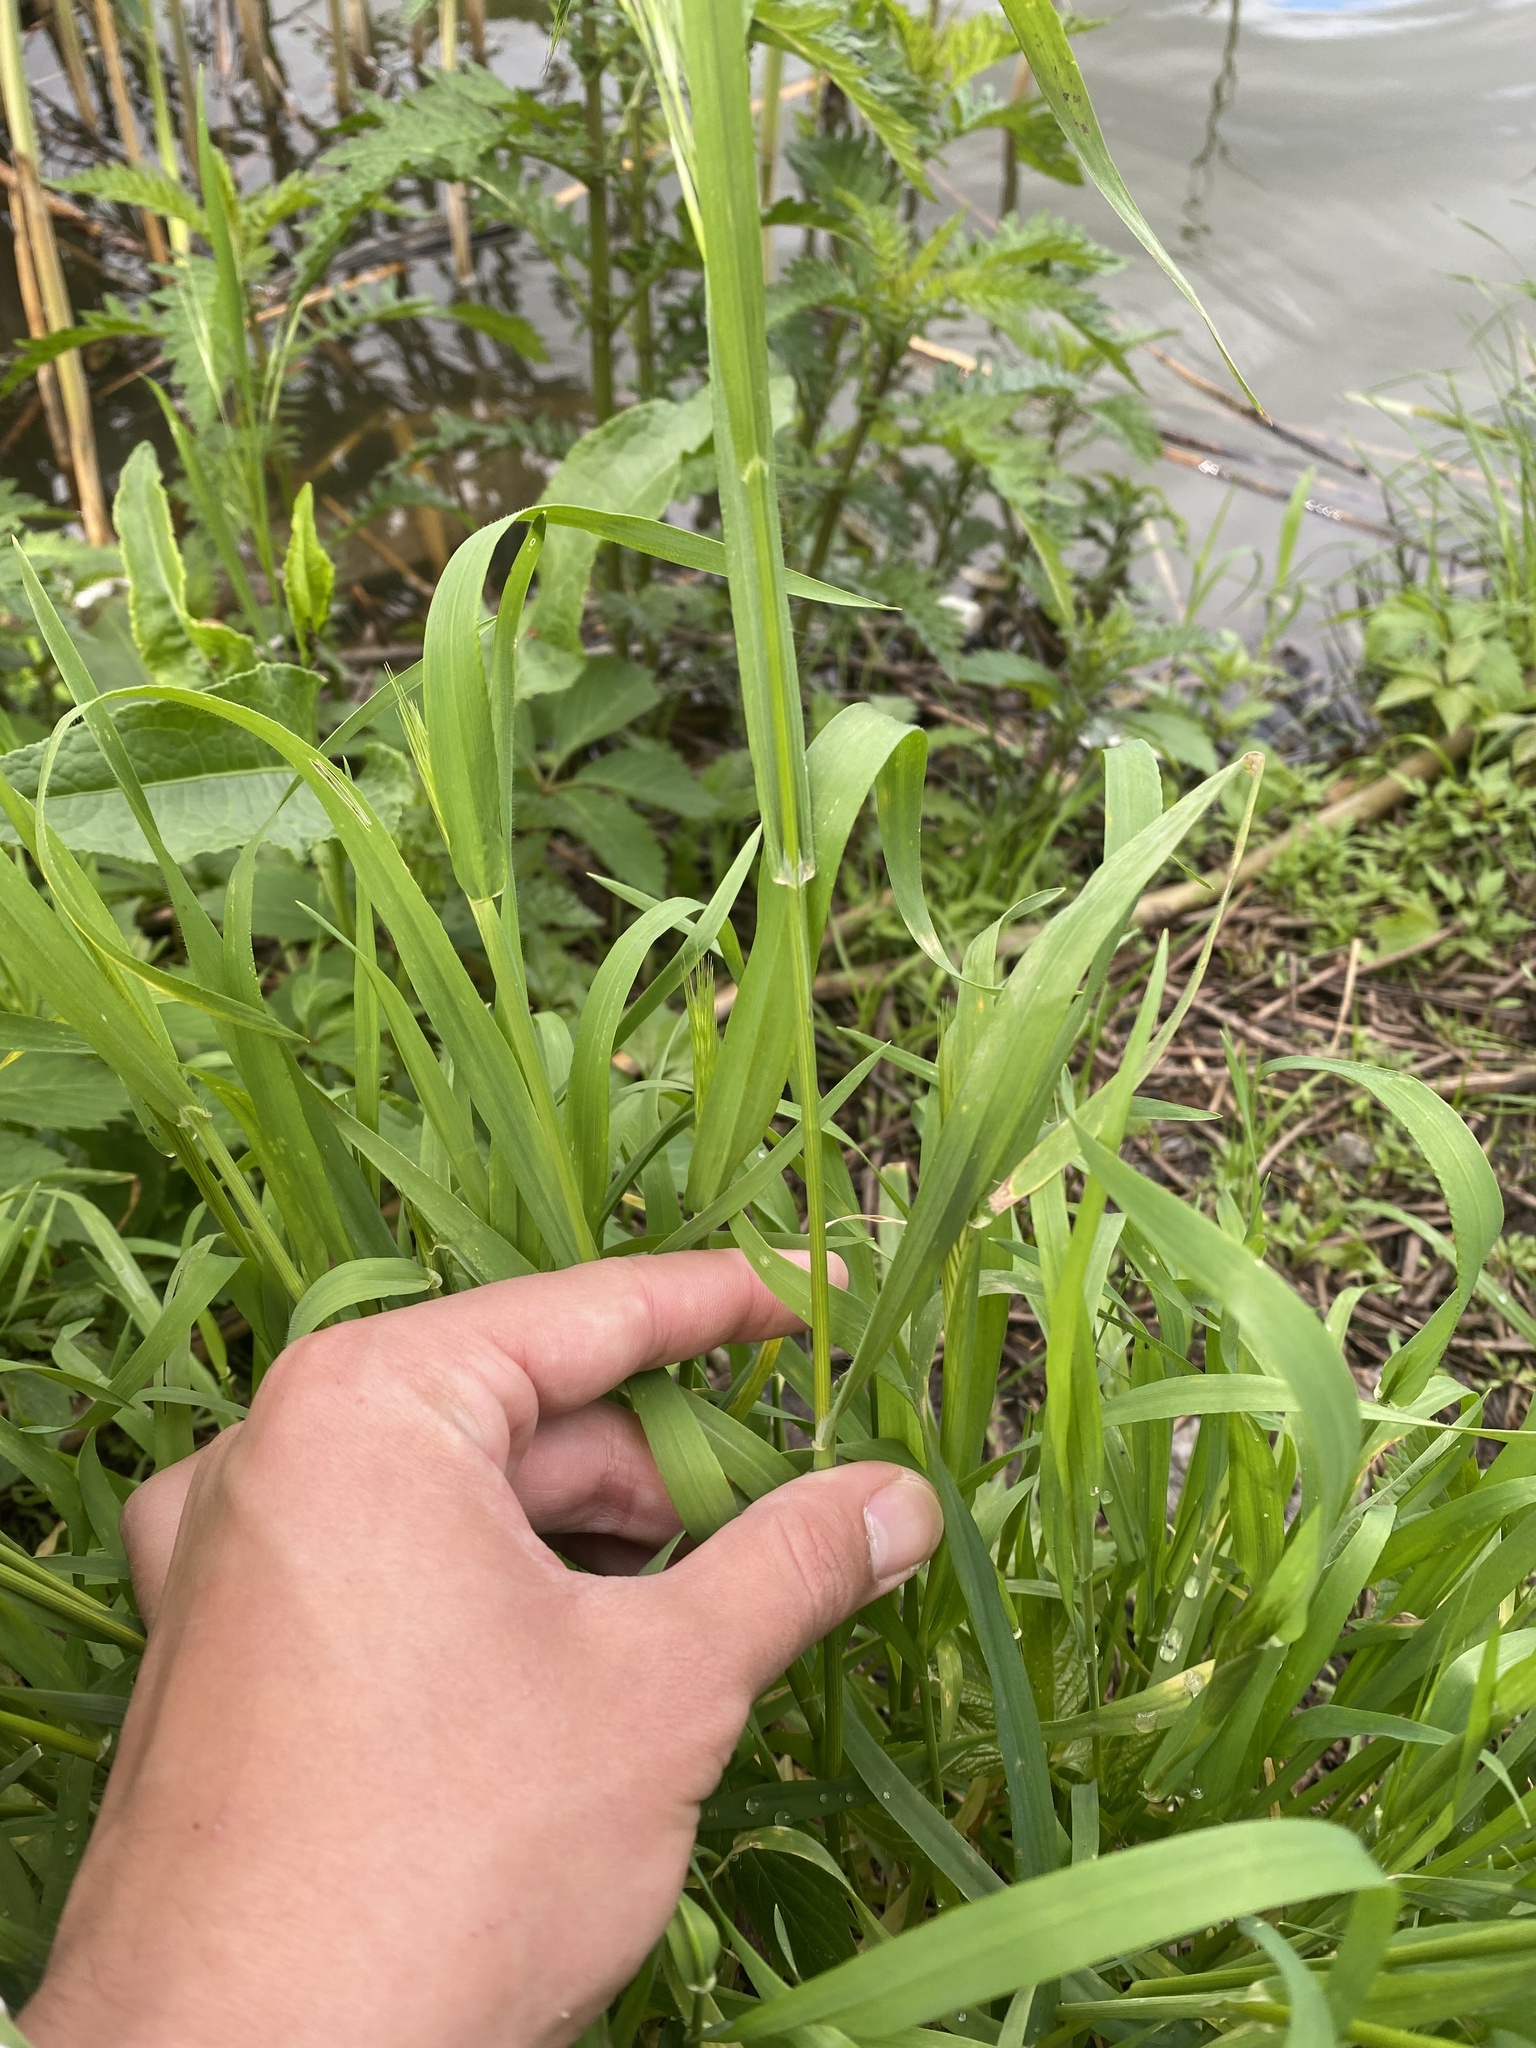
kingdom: Plantae
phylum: Tracheophyta
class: Liliopsida
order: Poales
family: Poaceae
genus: Bromus
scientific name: Bromus tectorum
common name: Cheatgrass
